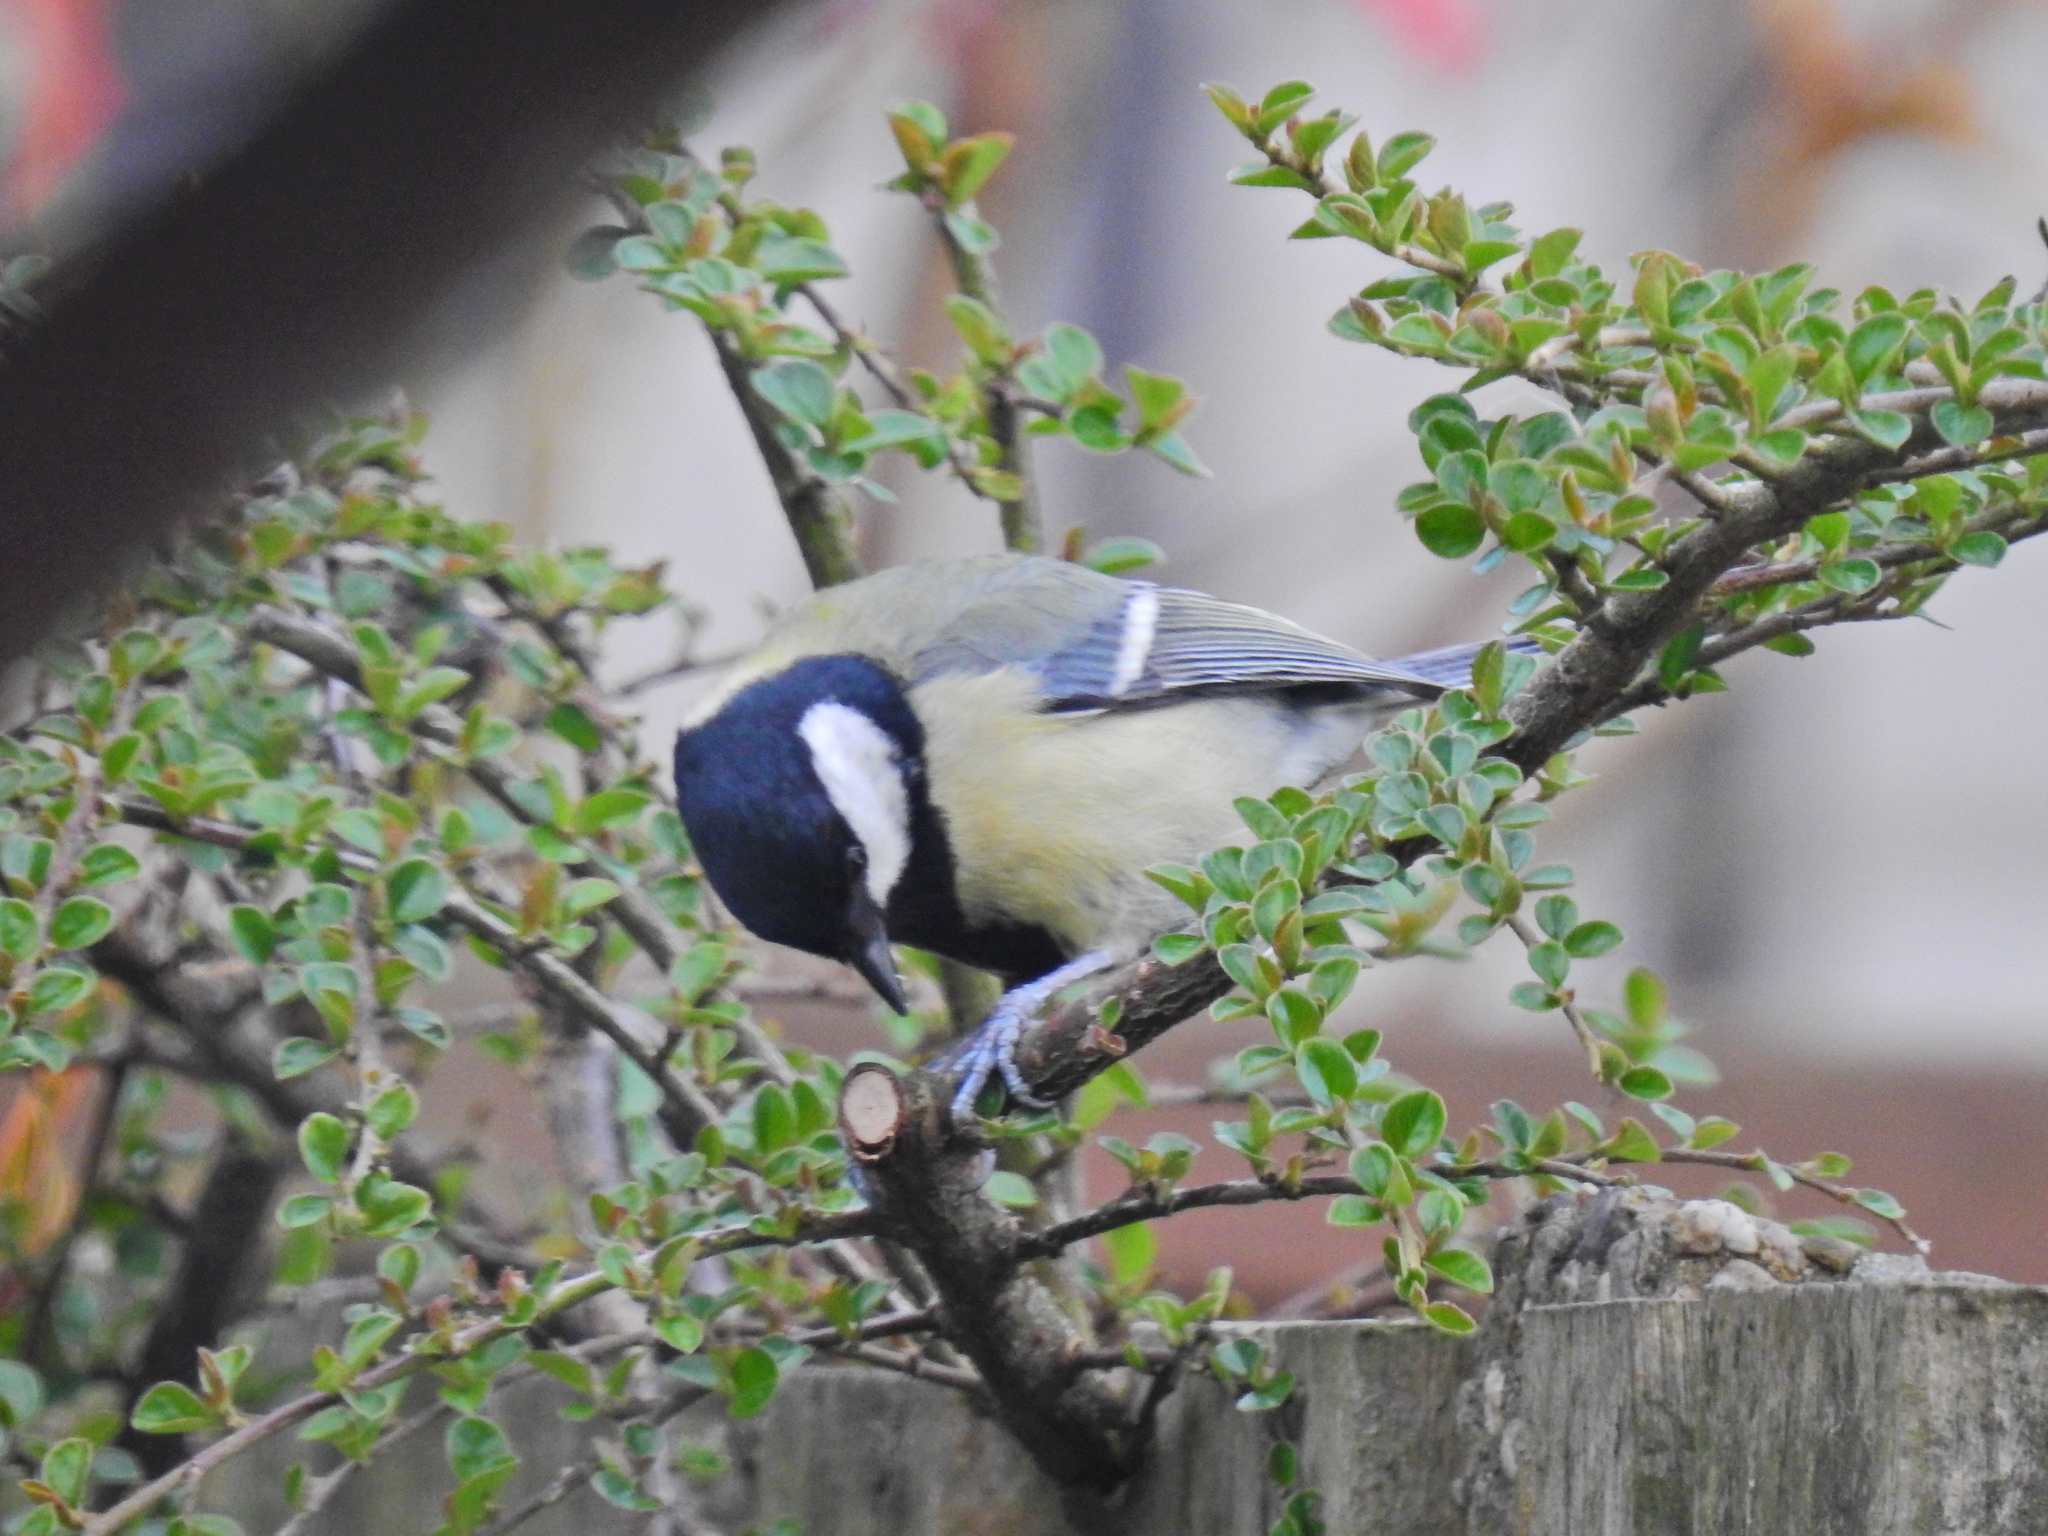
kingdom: Animalia
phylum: Chordata
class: Aves
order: Passeriformes
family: Paridae
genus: Parus
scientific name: Parus major
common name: Great tit
